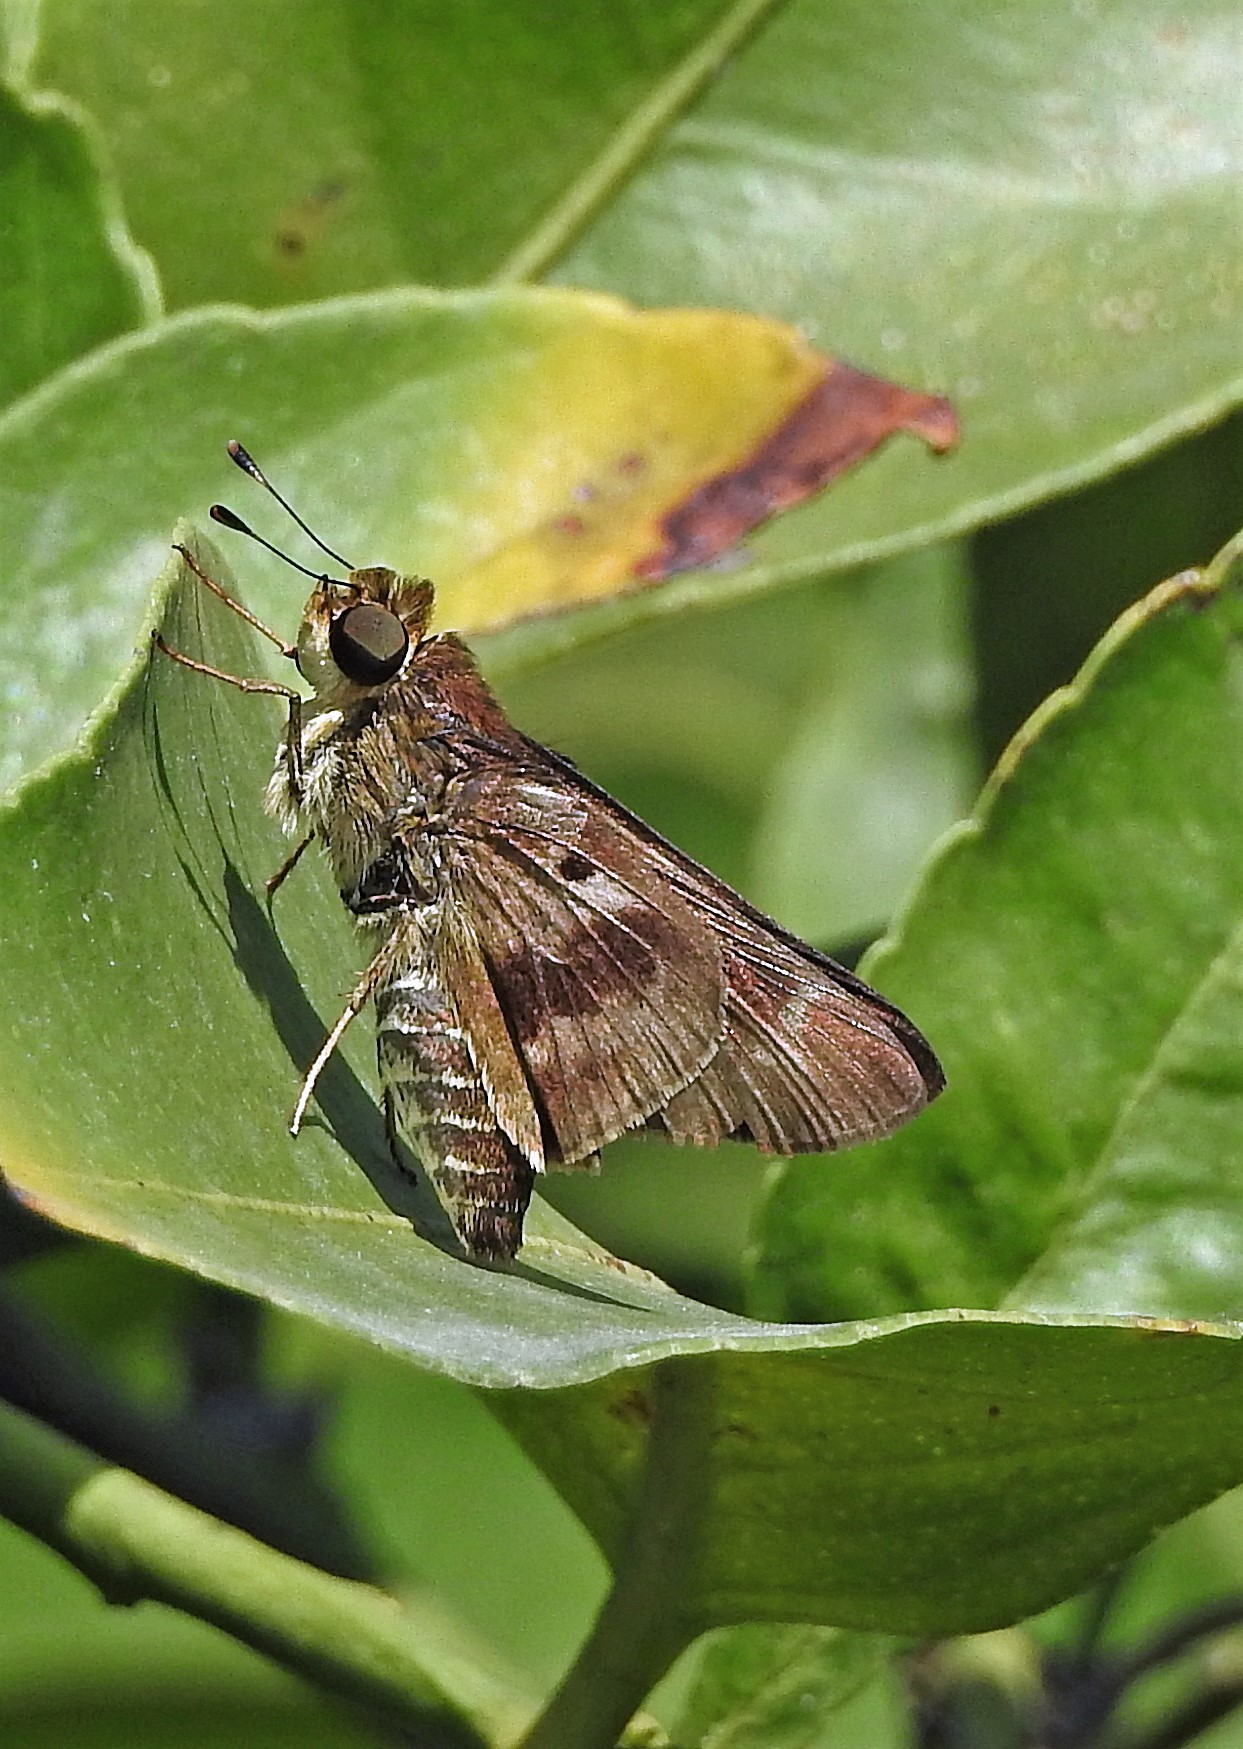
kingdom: Animalia
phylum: Arthropoda
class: Insecta
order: Lepidoptera
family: Hesperiidae
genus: Nyctelius
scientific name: Nyctelius nyctelius
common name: Violet-banded skipper
